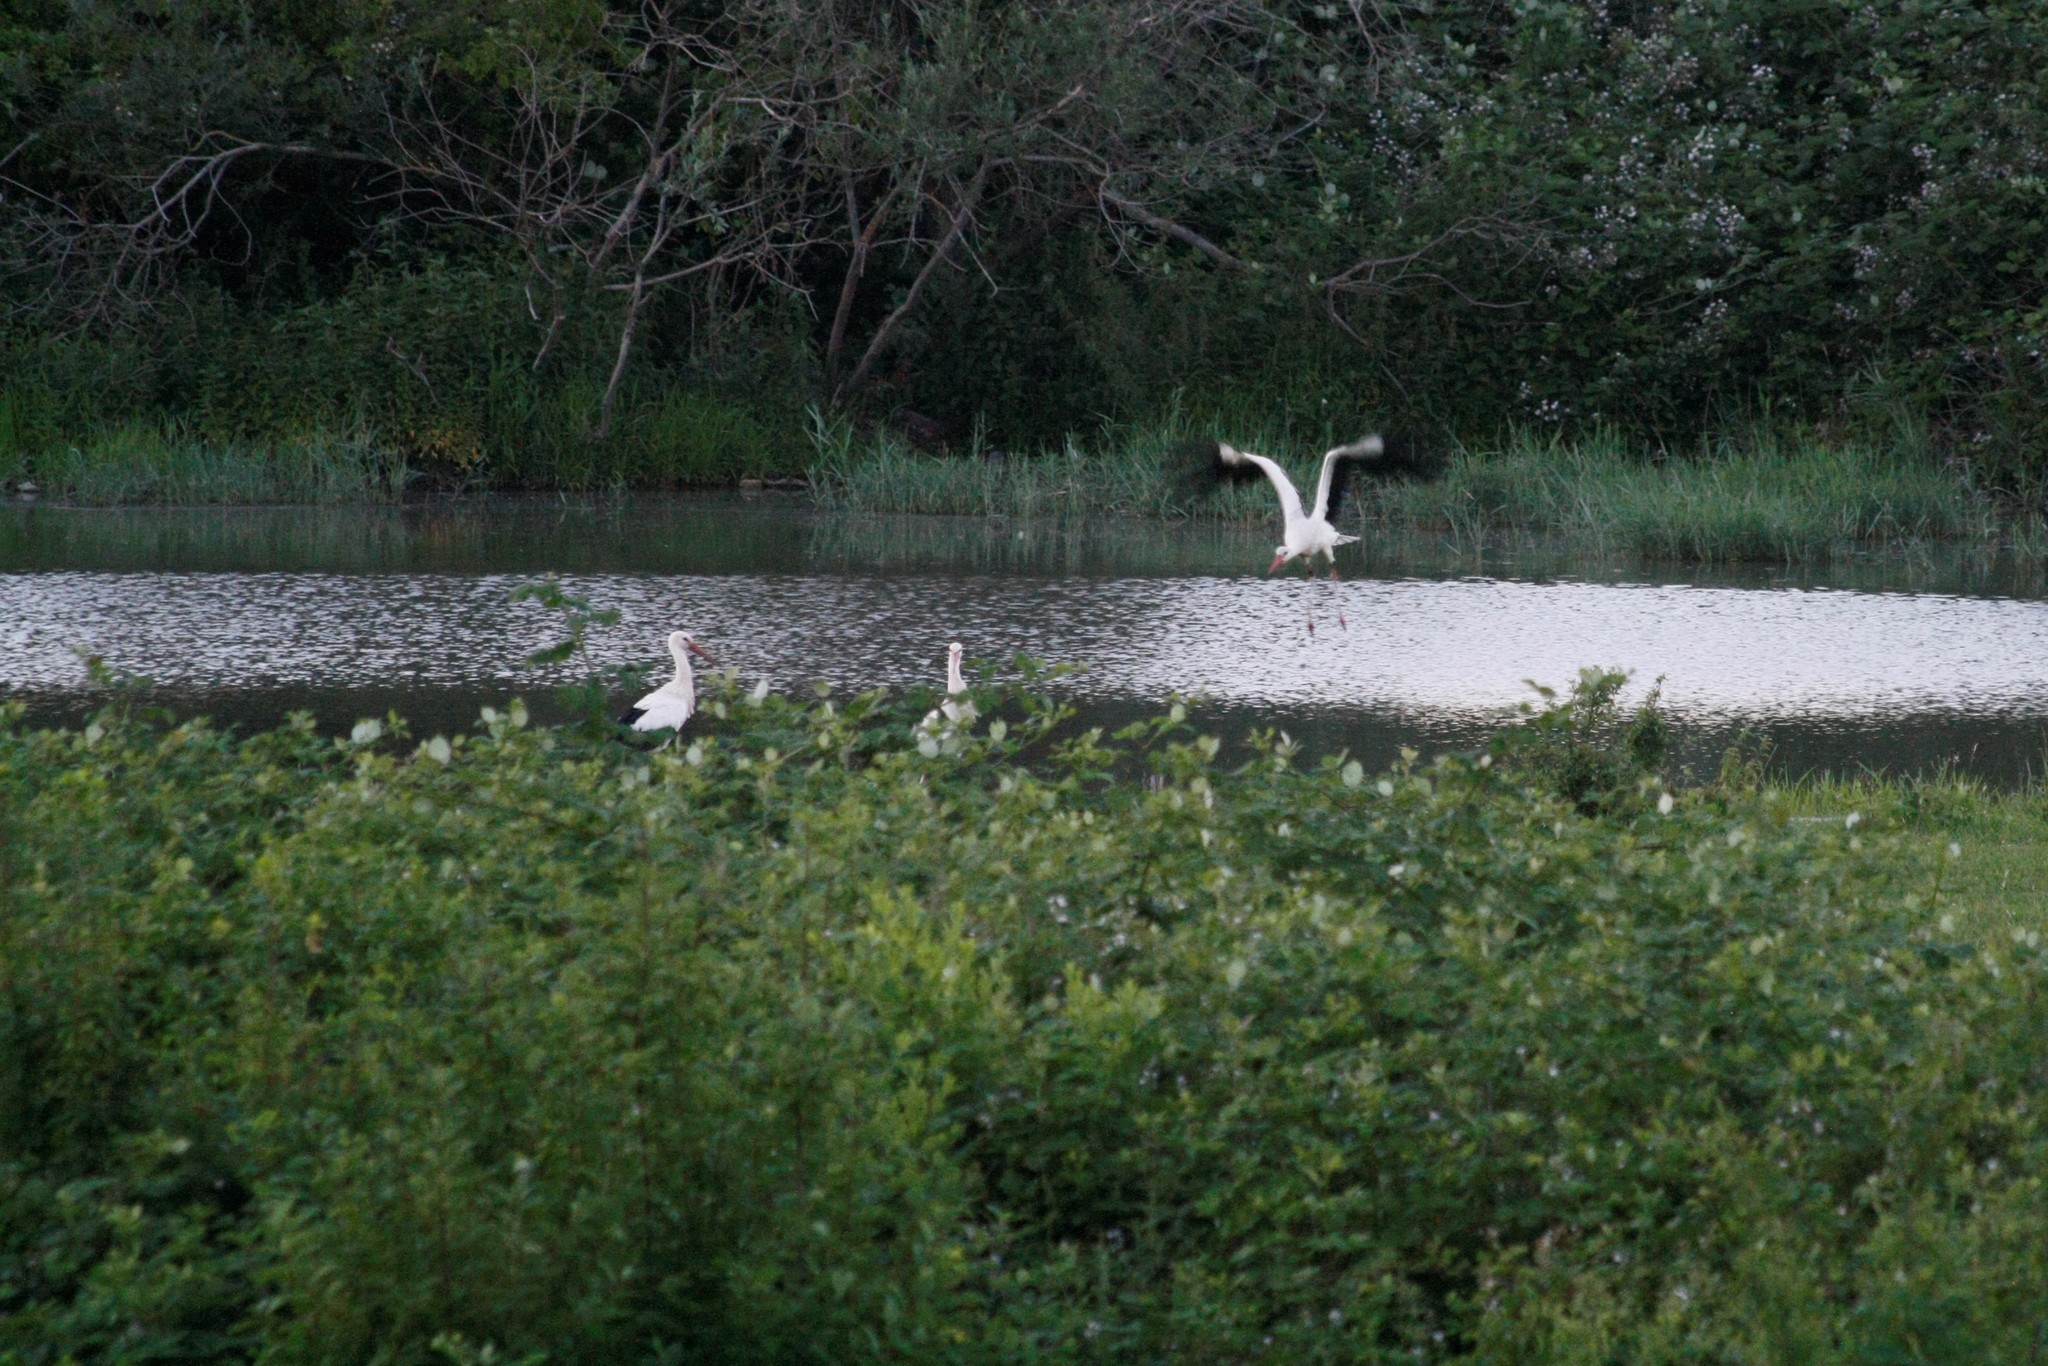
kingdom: Animalia
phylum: Chordata
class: Aves
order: Ciconiiformes
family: Ciconiidae
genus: Ciconia
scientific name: Ciconia ciconia
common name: White stork
